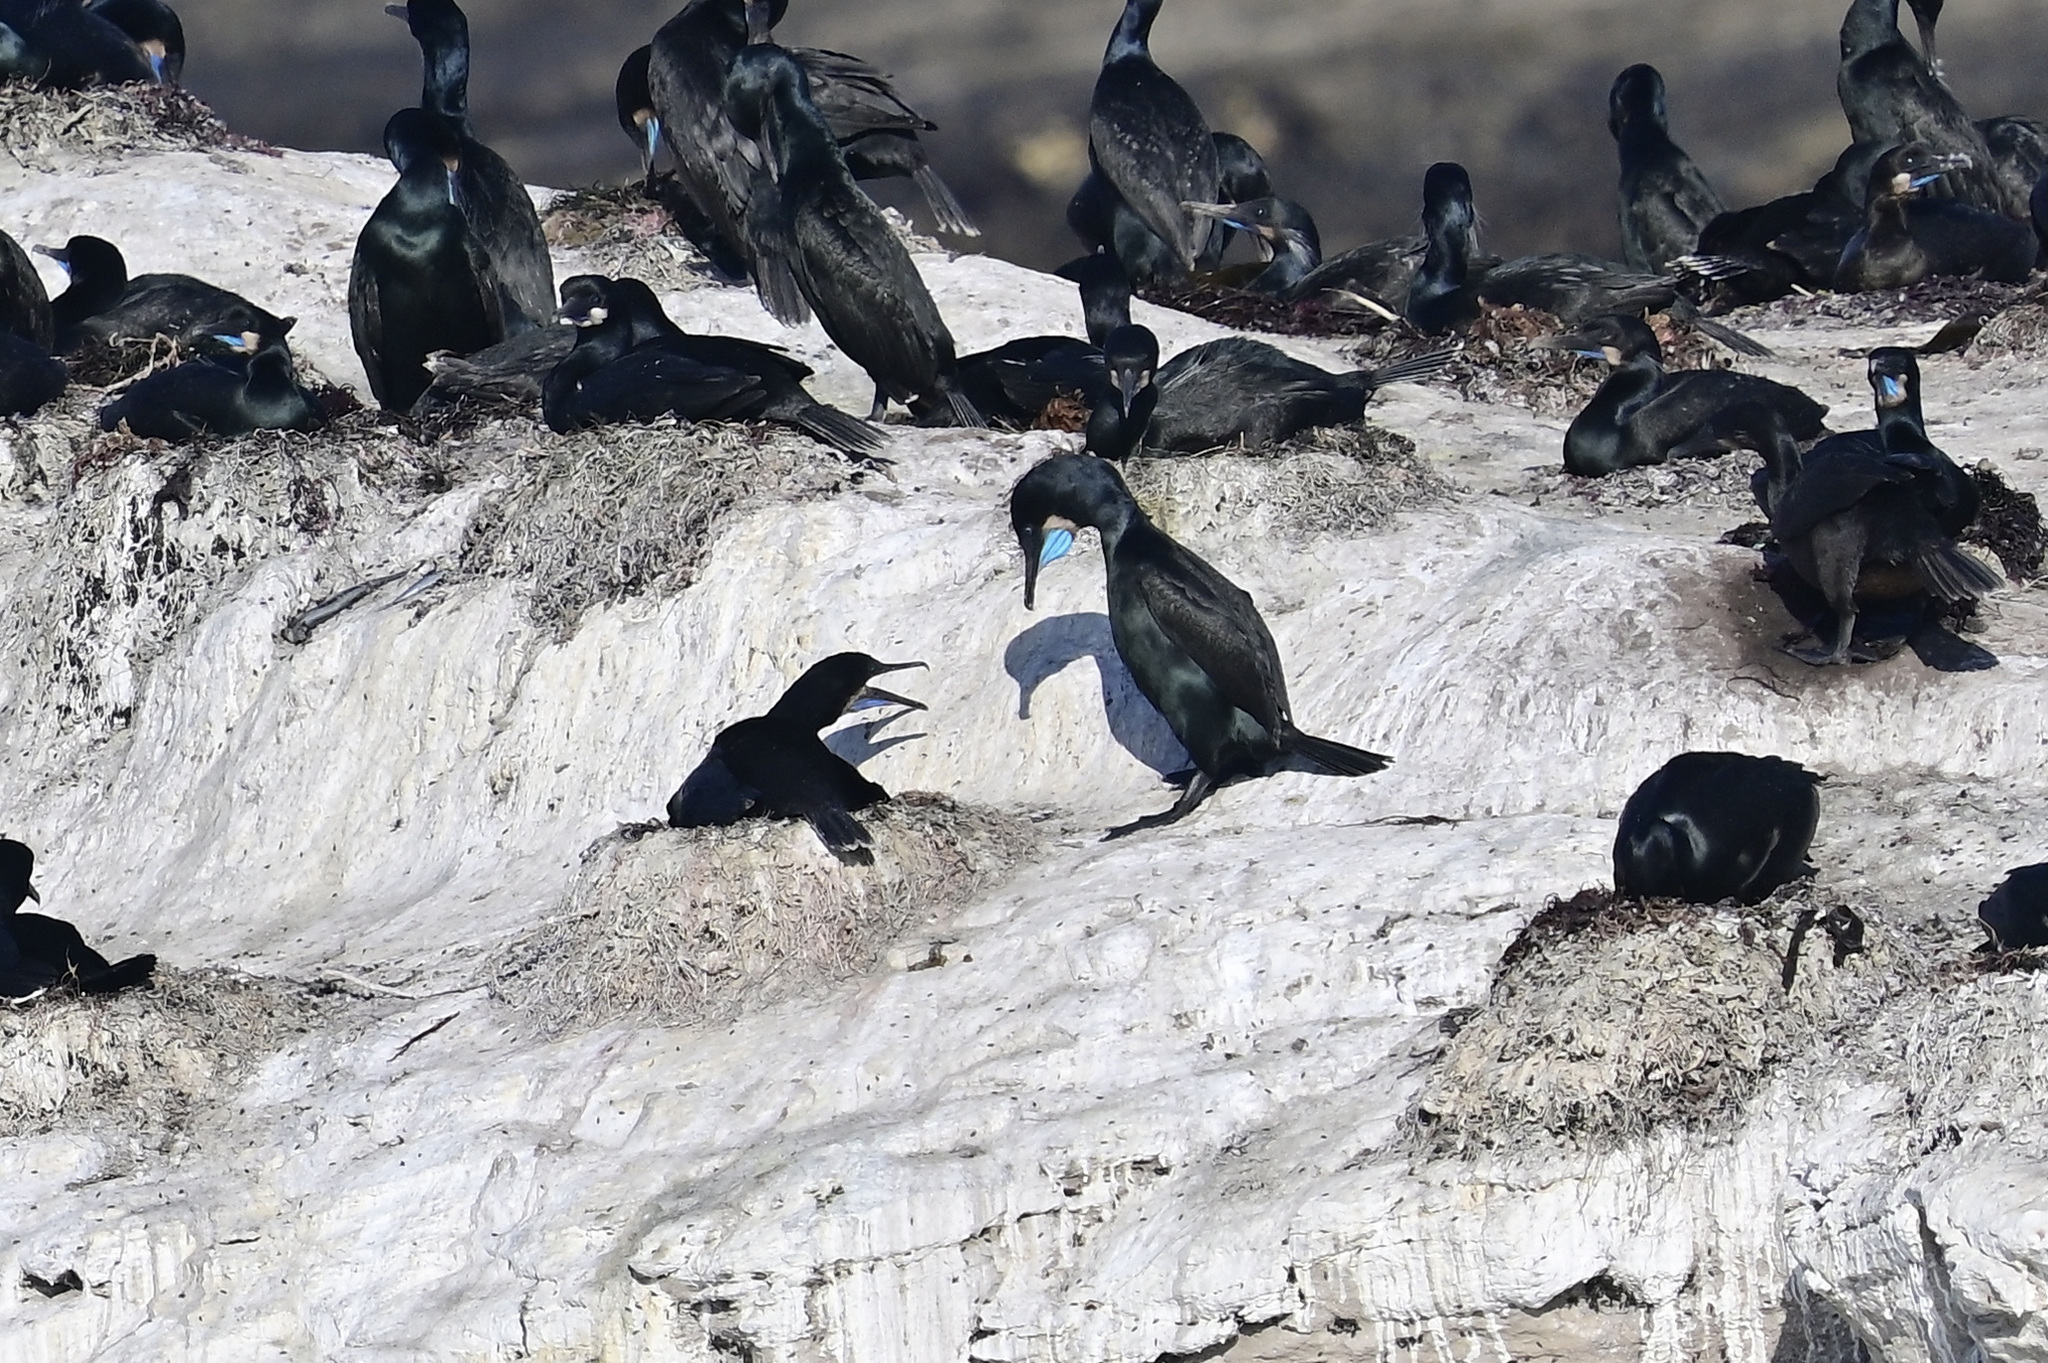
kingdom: Animalia
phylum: Chordata
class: Aves
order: Suliformes
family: Phalacrocoracidae
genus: Urile
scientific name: Urile penicillatus
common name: Brandt's cormorant
